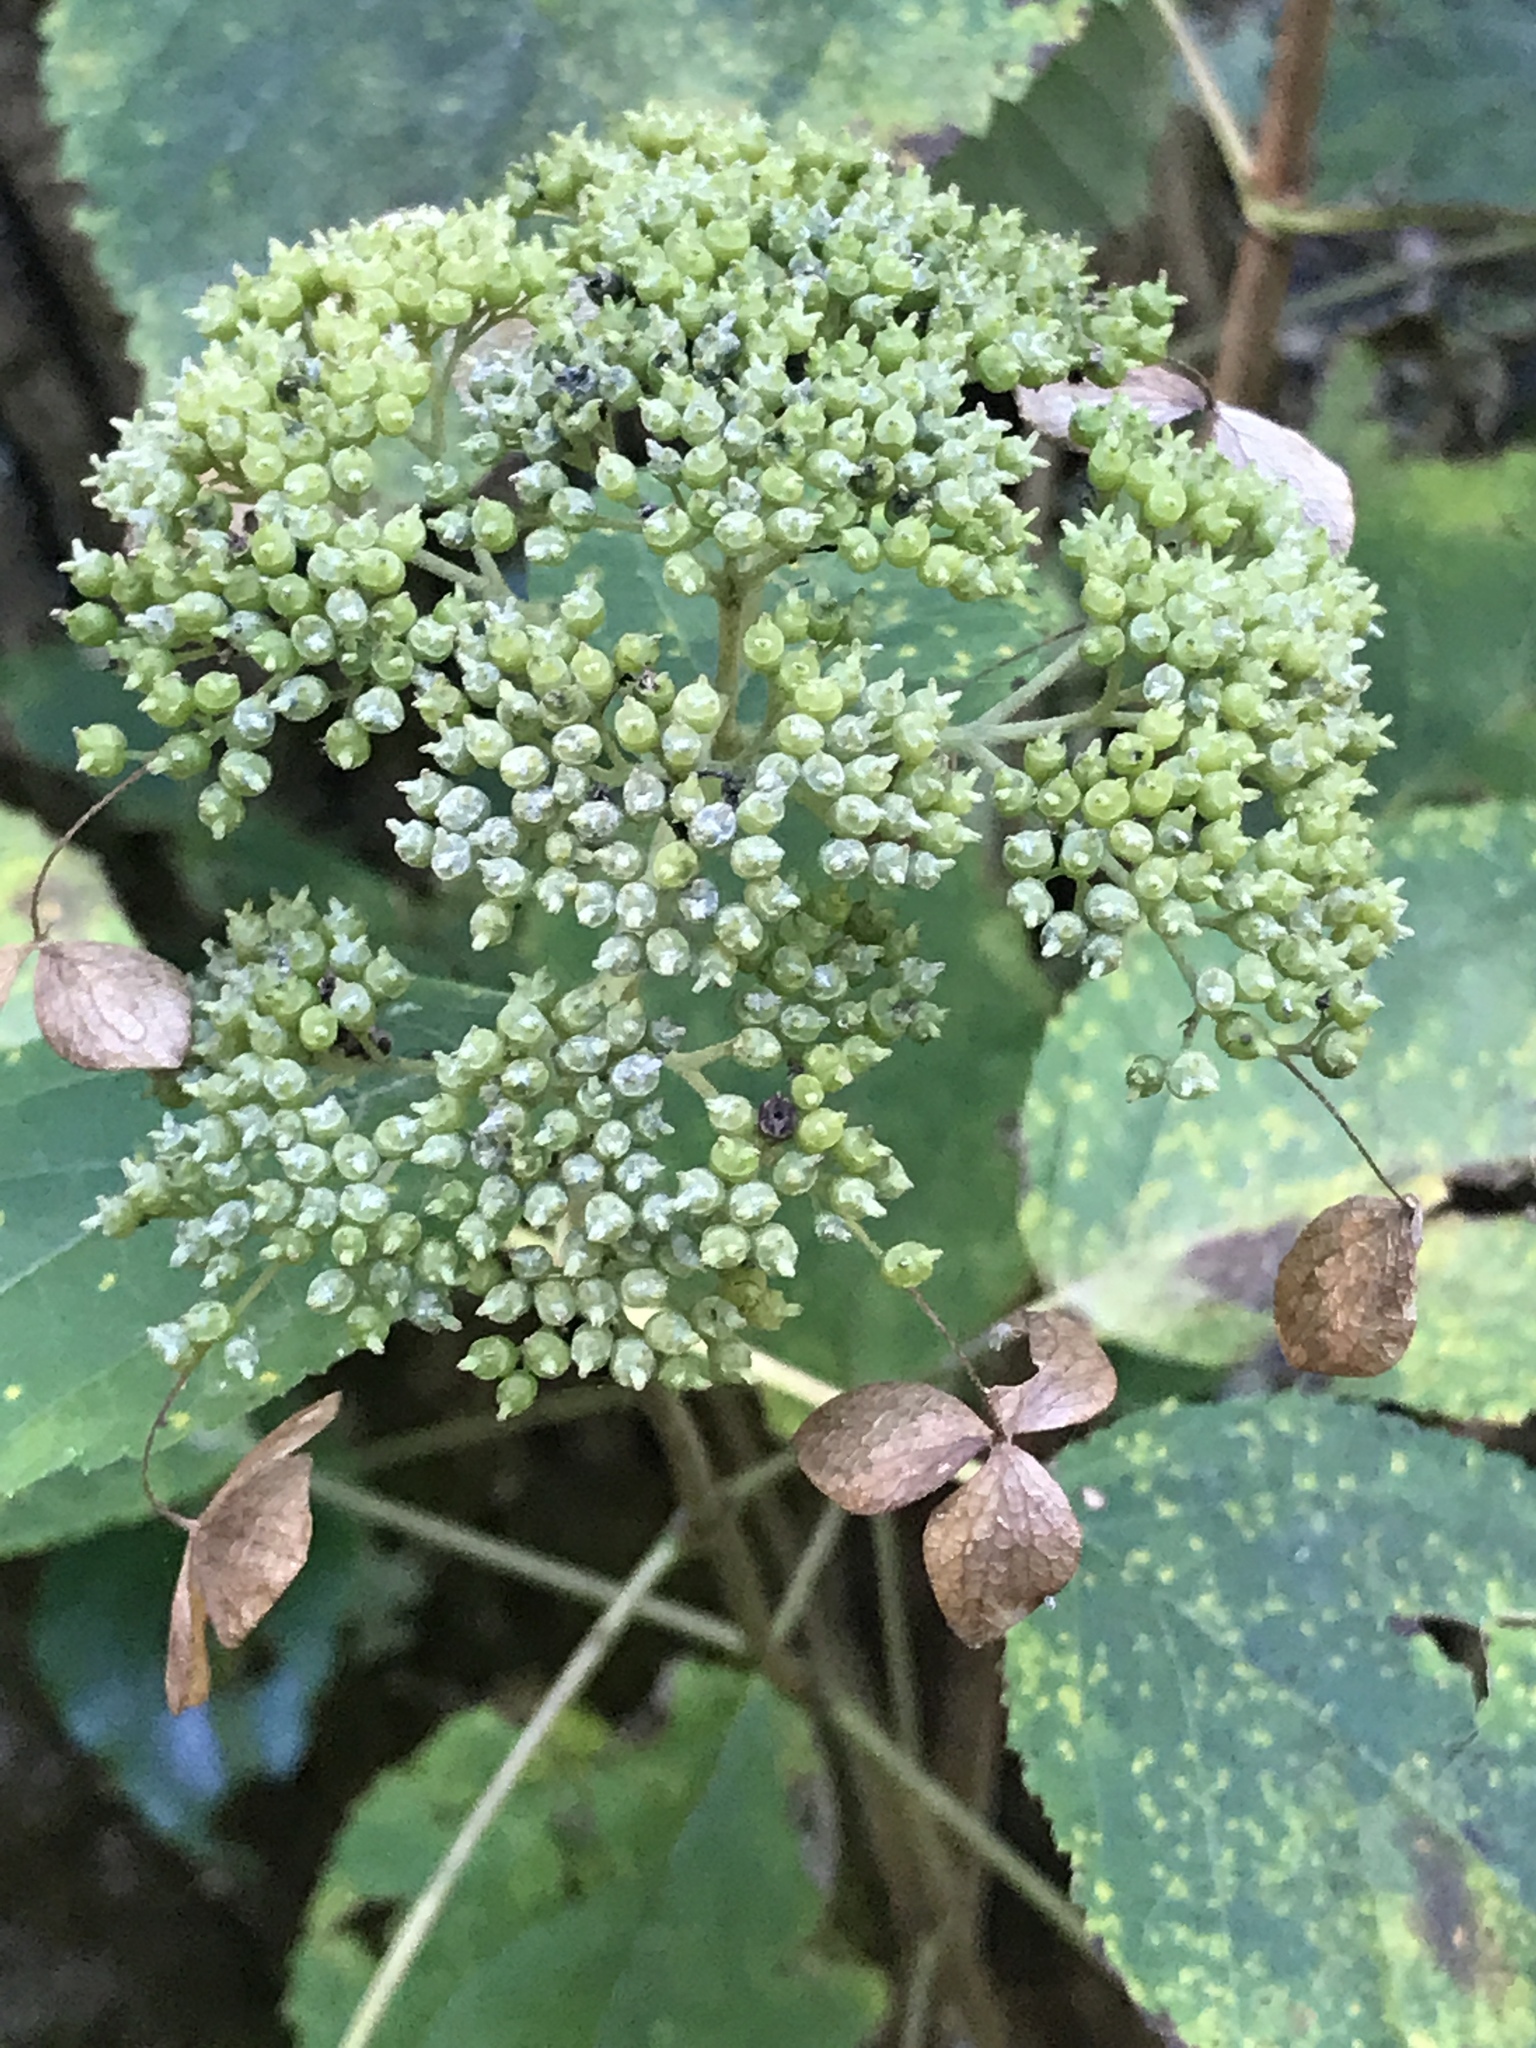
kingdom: Plantae
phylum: Tracheophyta
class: Magnoliopsida
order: Cornales
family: Hydrangeaceae
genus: Hydrangea
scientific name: Hydrangea arborescens
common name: Sevenbark
